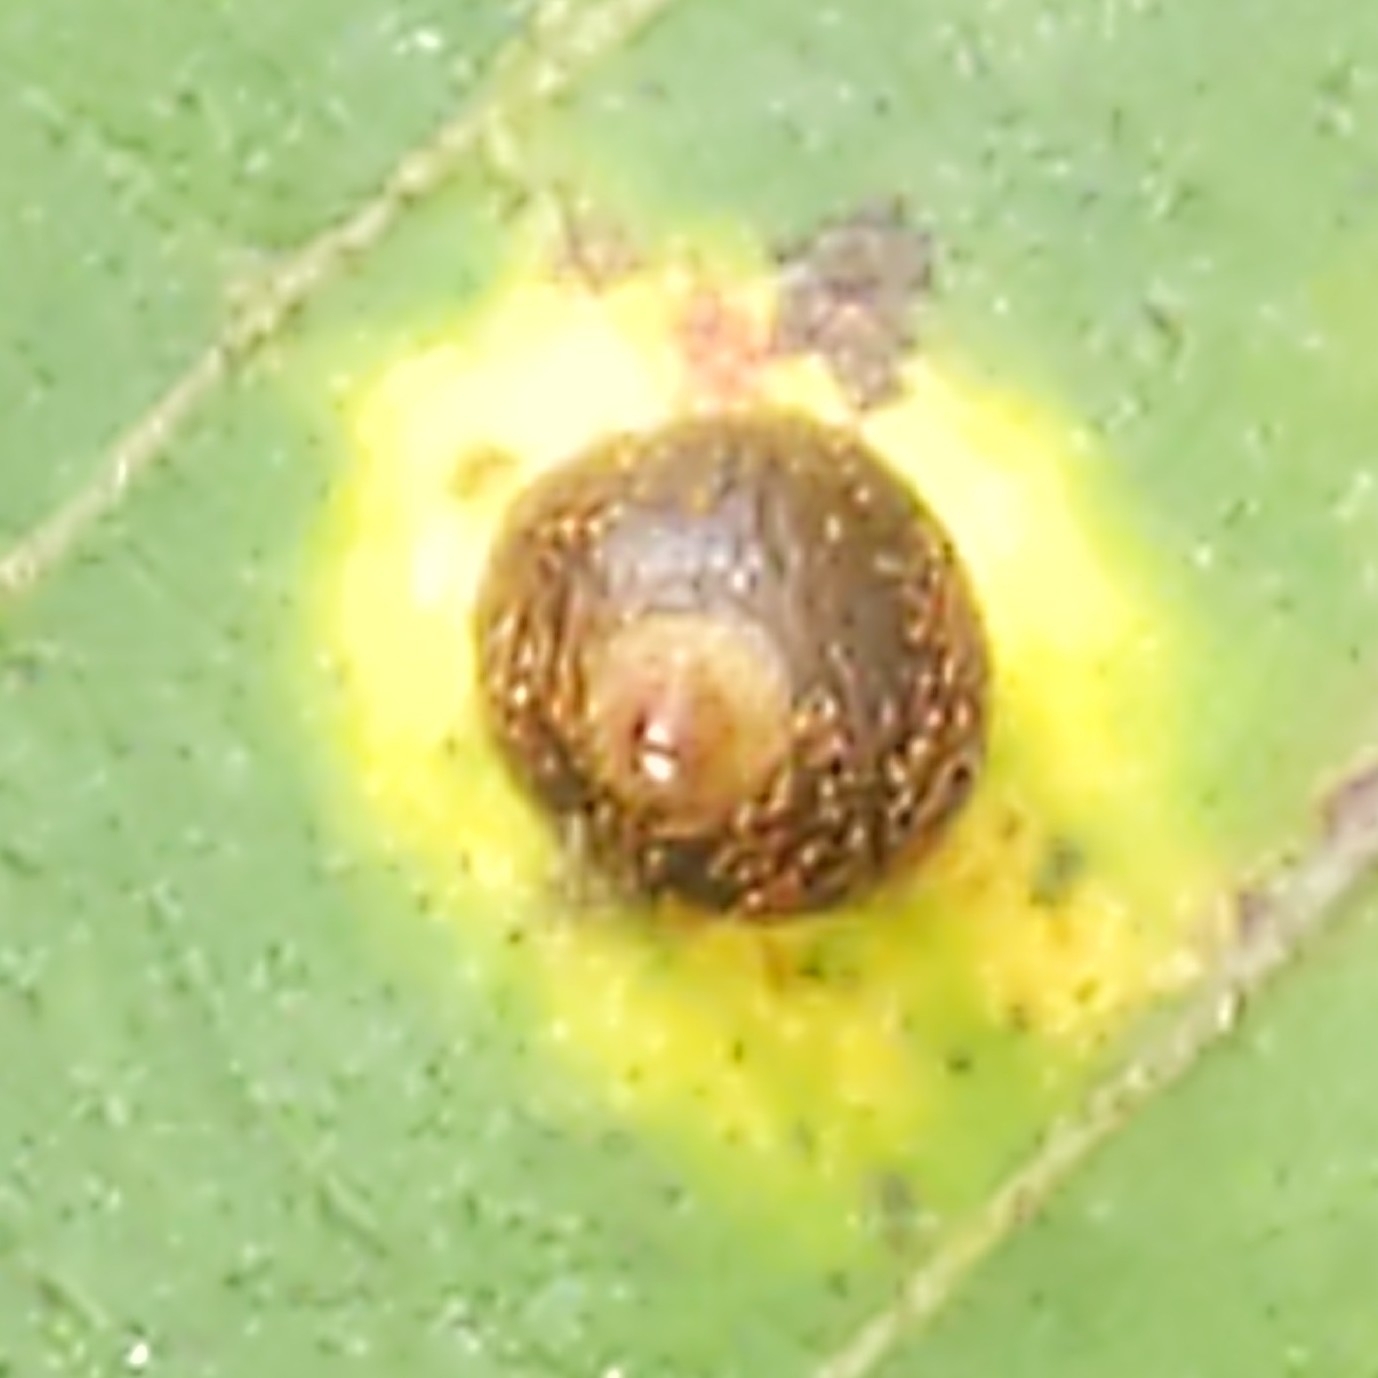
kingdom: Animalia
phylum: Arthropoda
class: Insecta
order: Diptera
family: Cecidomyiidae
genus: Caryomyia
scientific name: Caryomyia viscidolium
